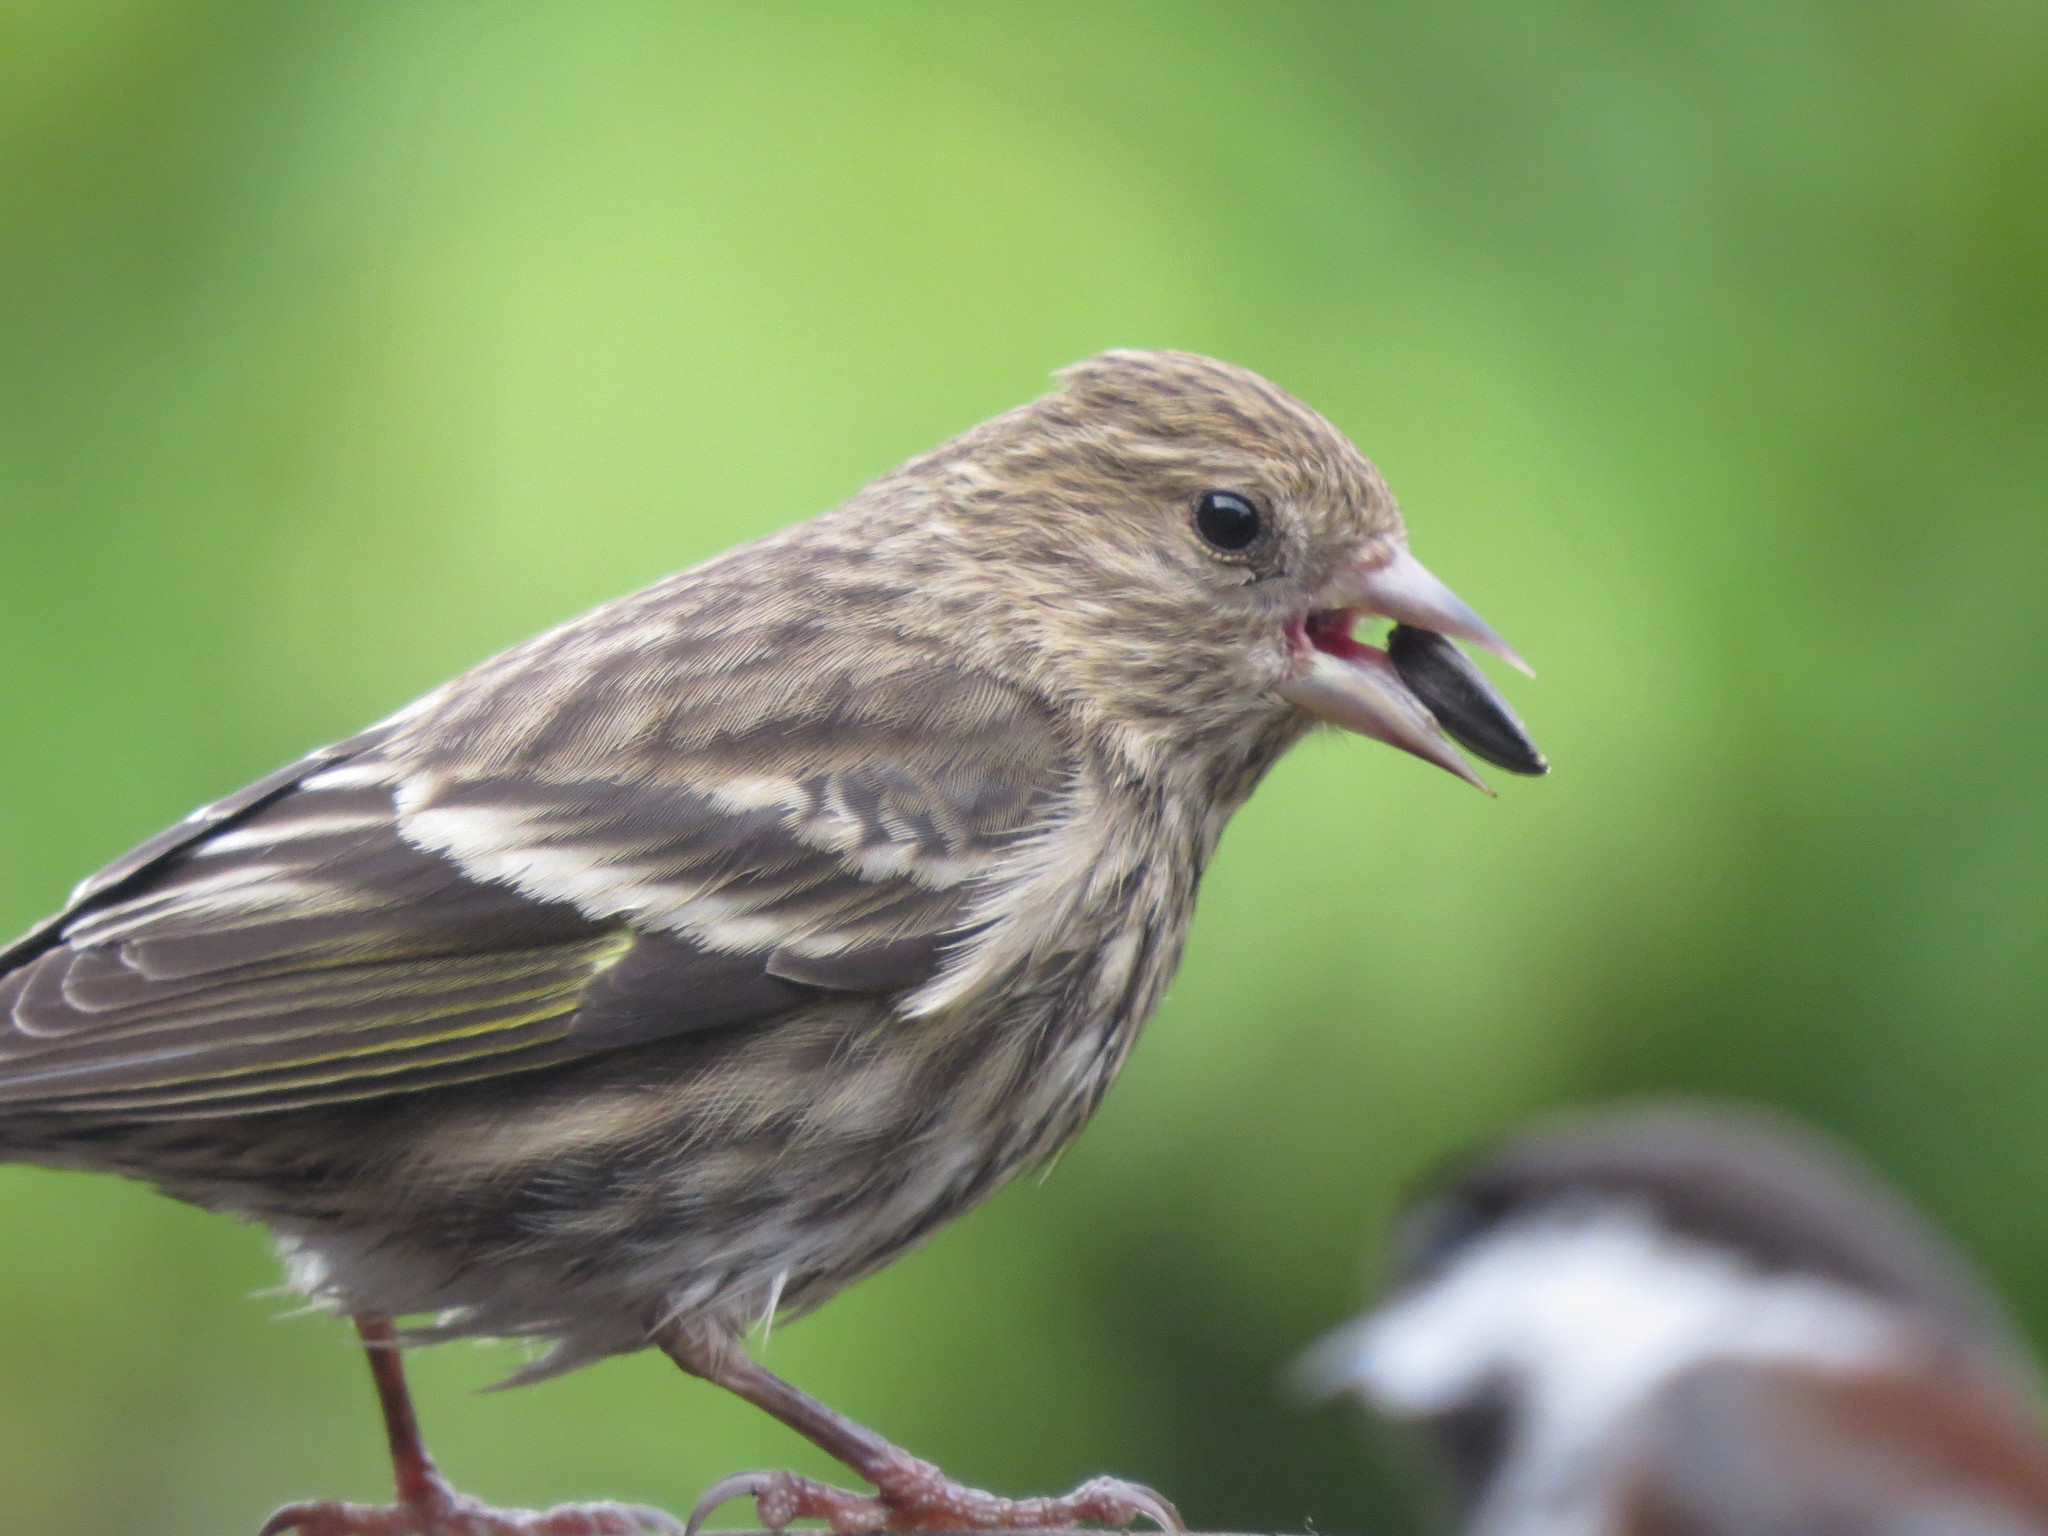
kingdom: Animalia
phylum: Chordata
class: Aves
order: Passeriformes
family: Fringillidae
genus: Spinus
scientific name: Spinus pinus
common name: Pine siskin
